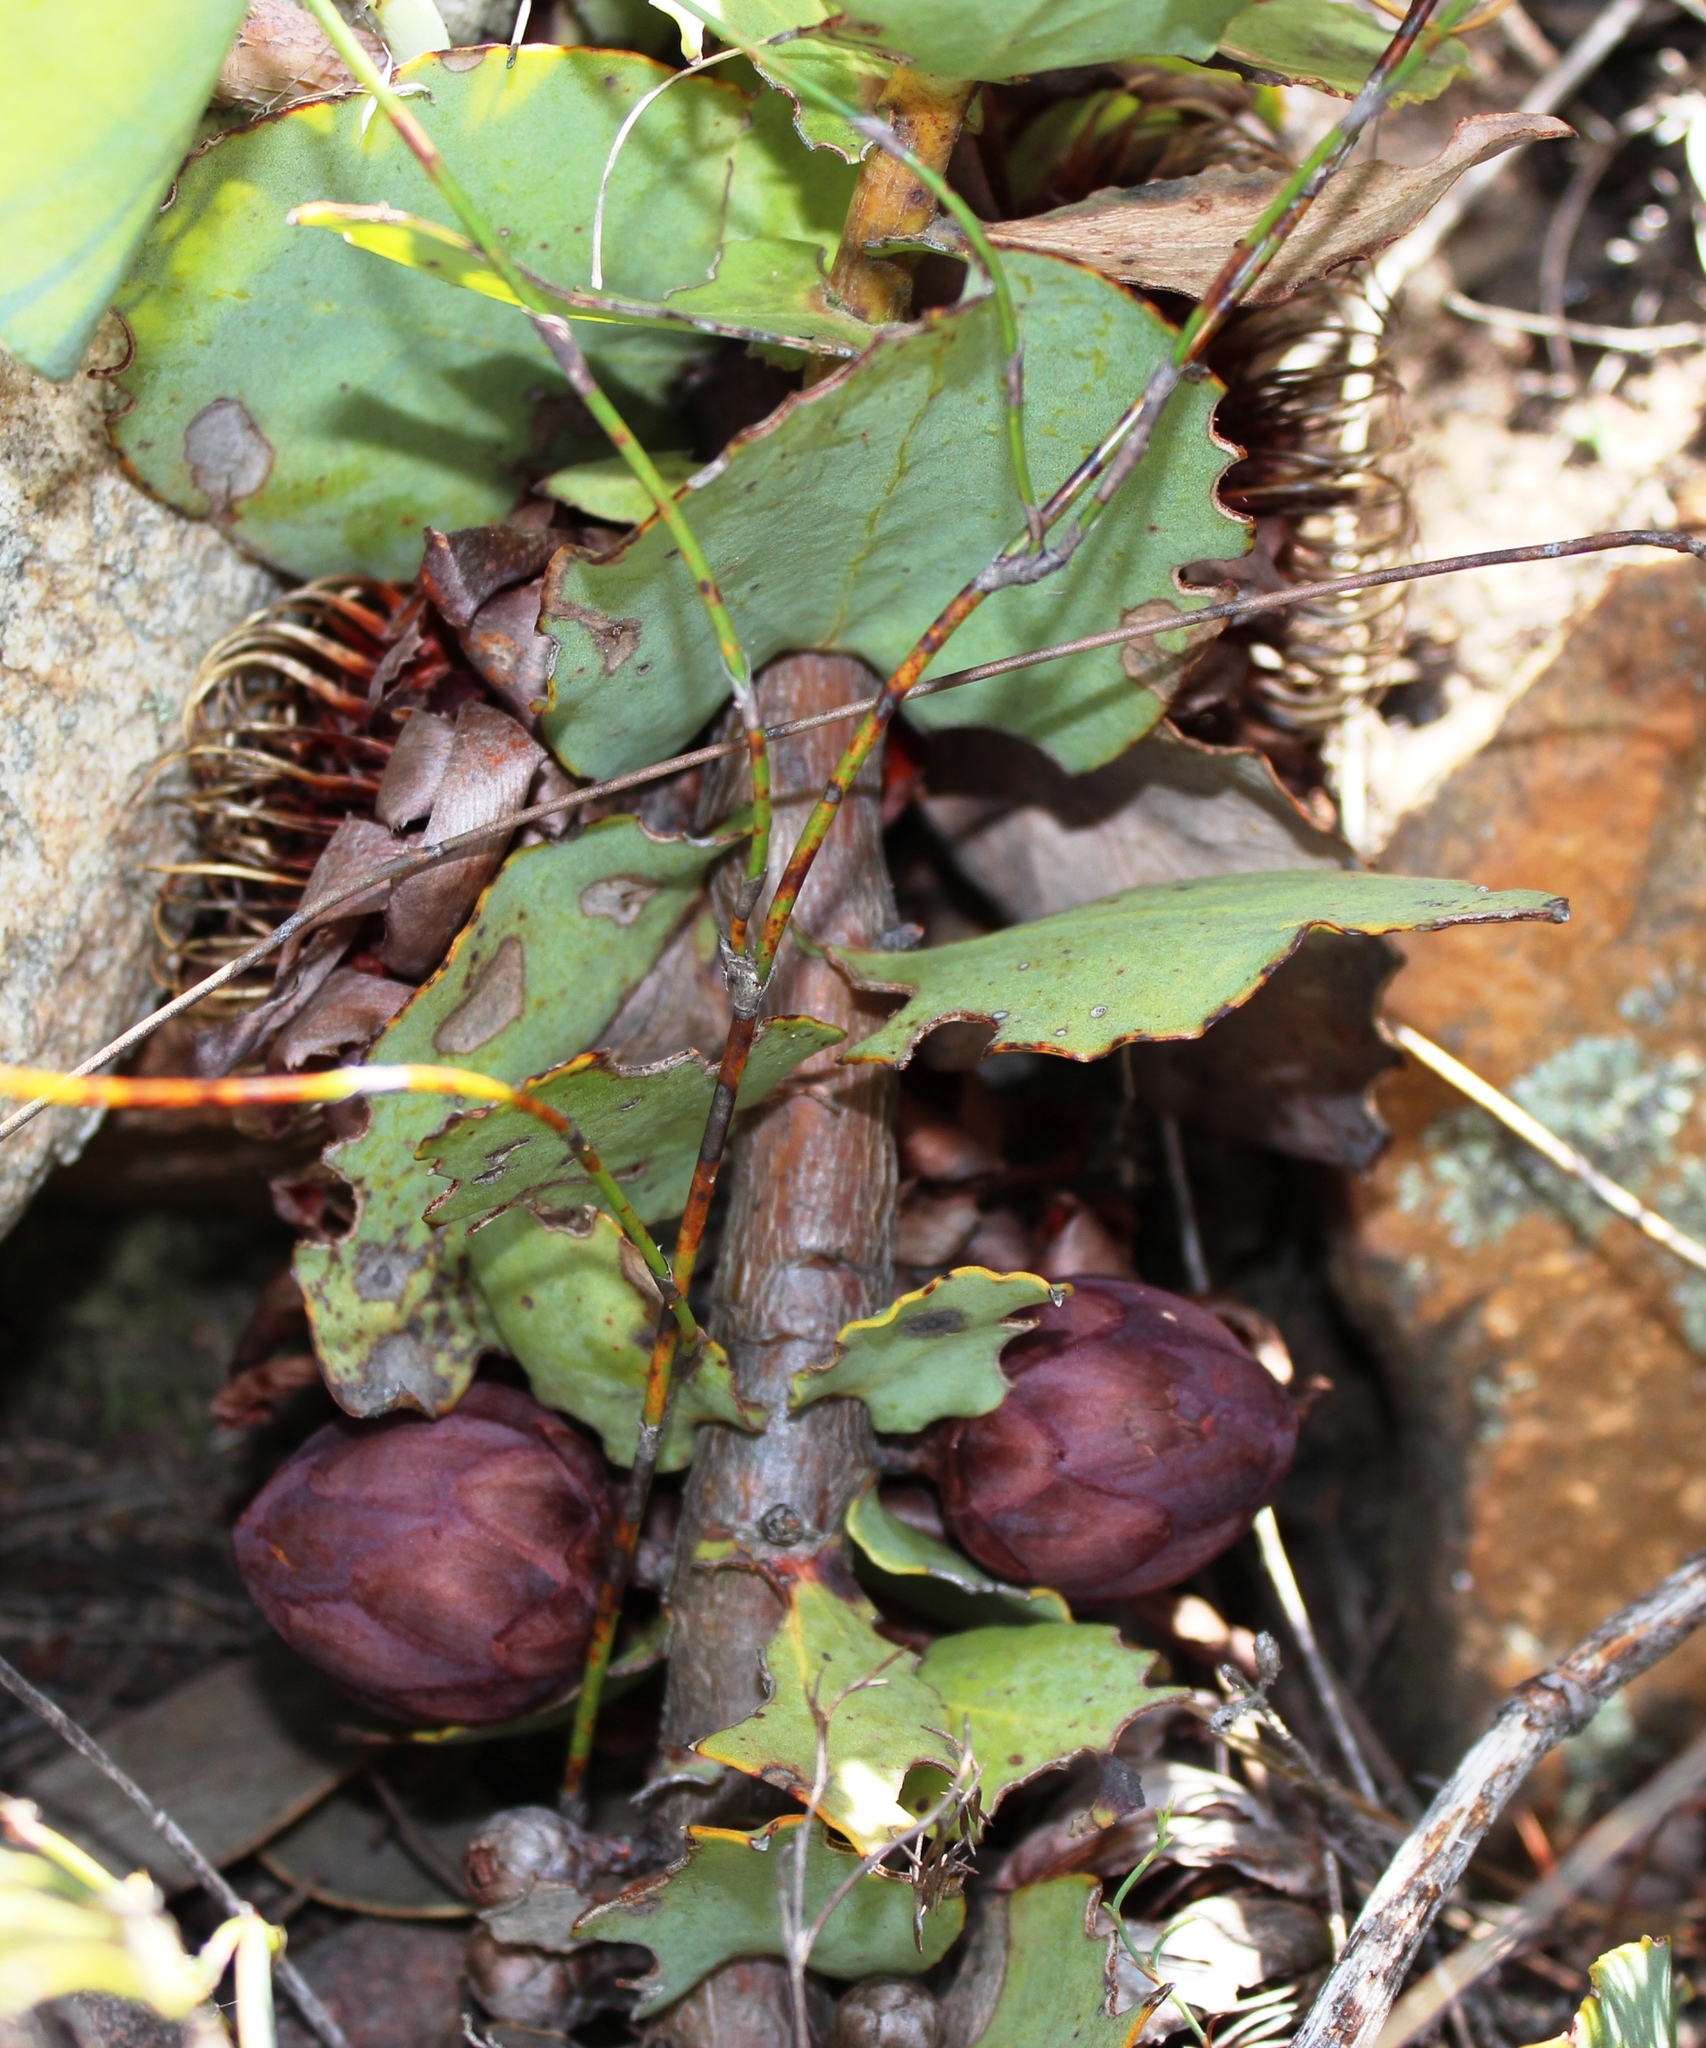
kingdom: Plantae
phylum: Tracheophyta
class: Magnoliopsida
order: Proteales
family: Proteaceae
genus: Protea
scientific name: Protea amplexicaulis
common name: Clasping-leaf sugarbush
